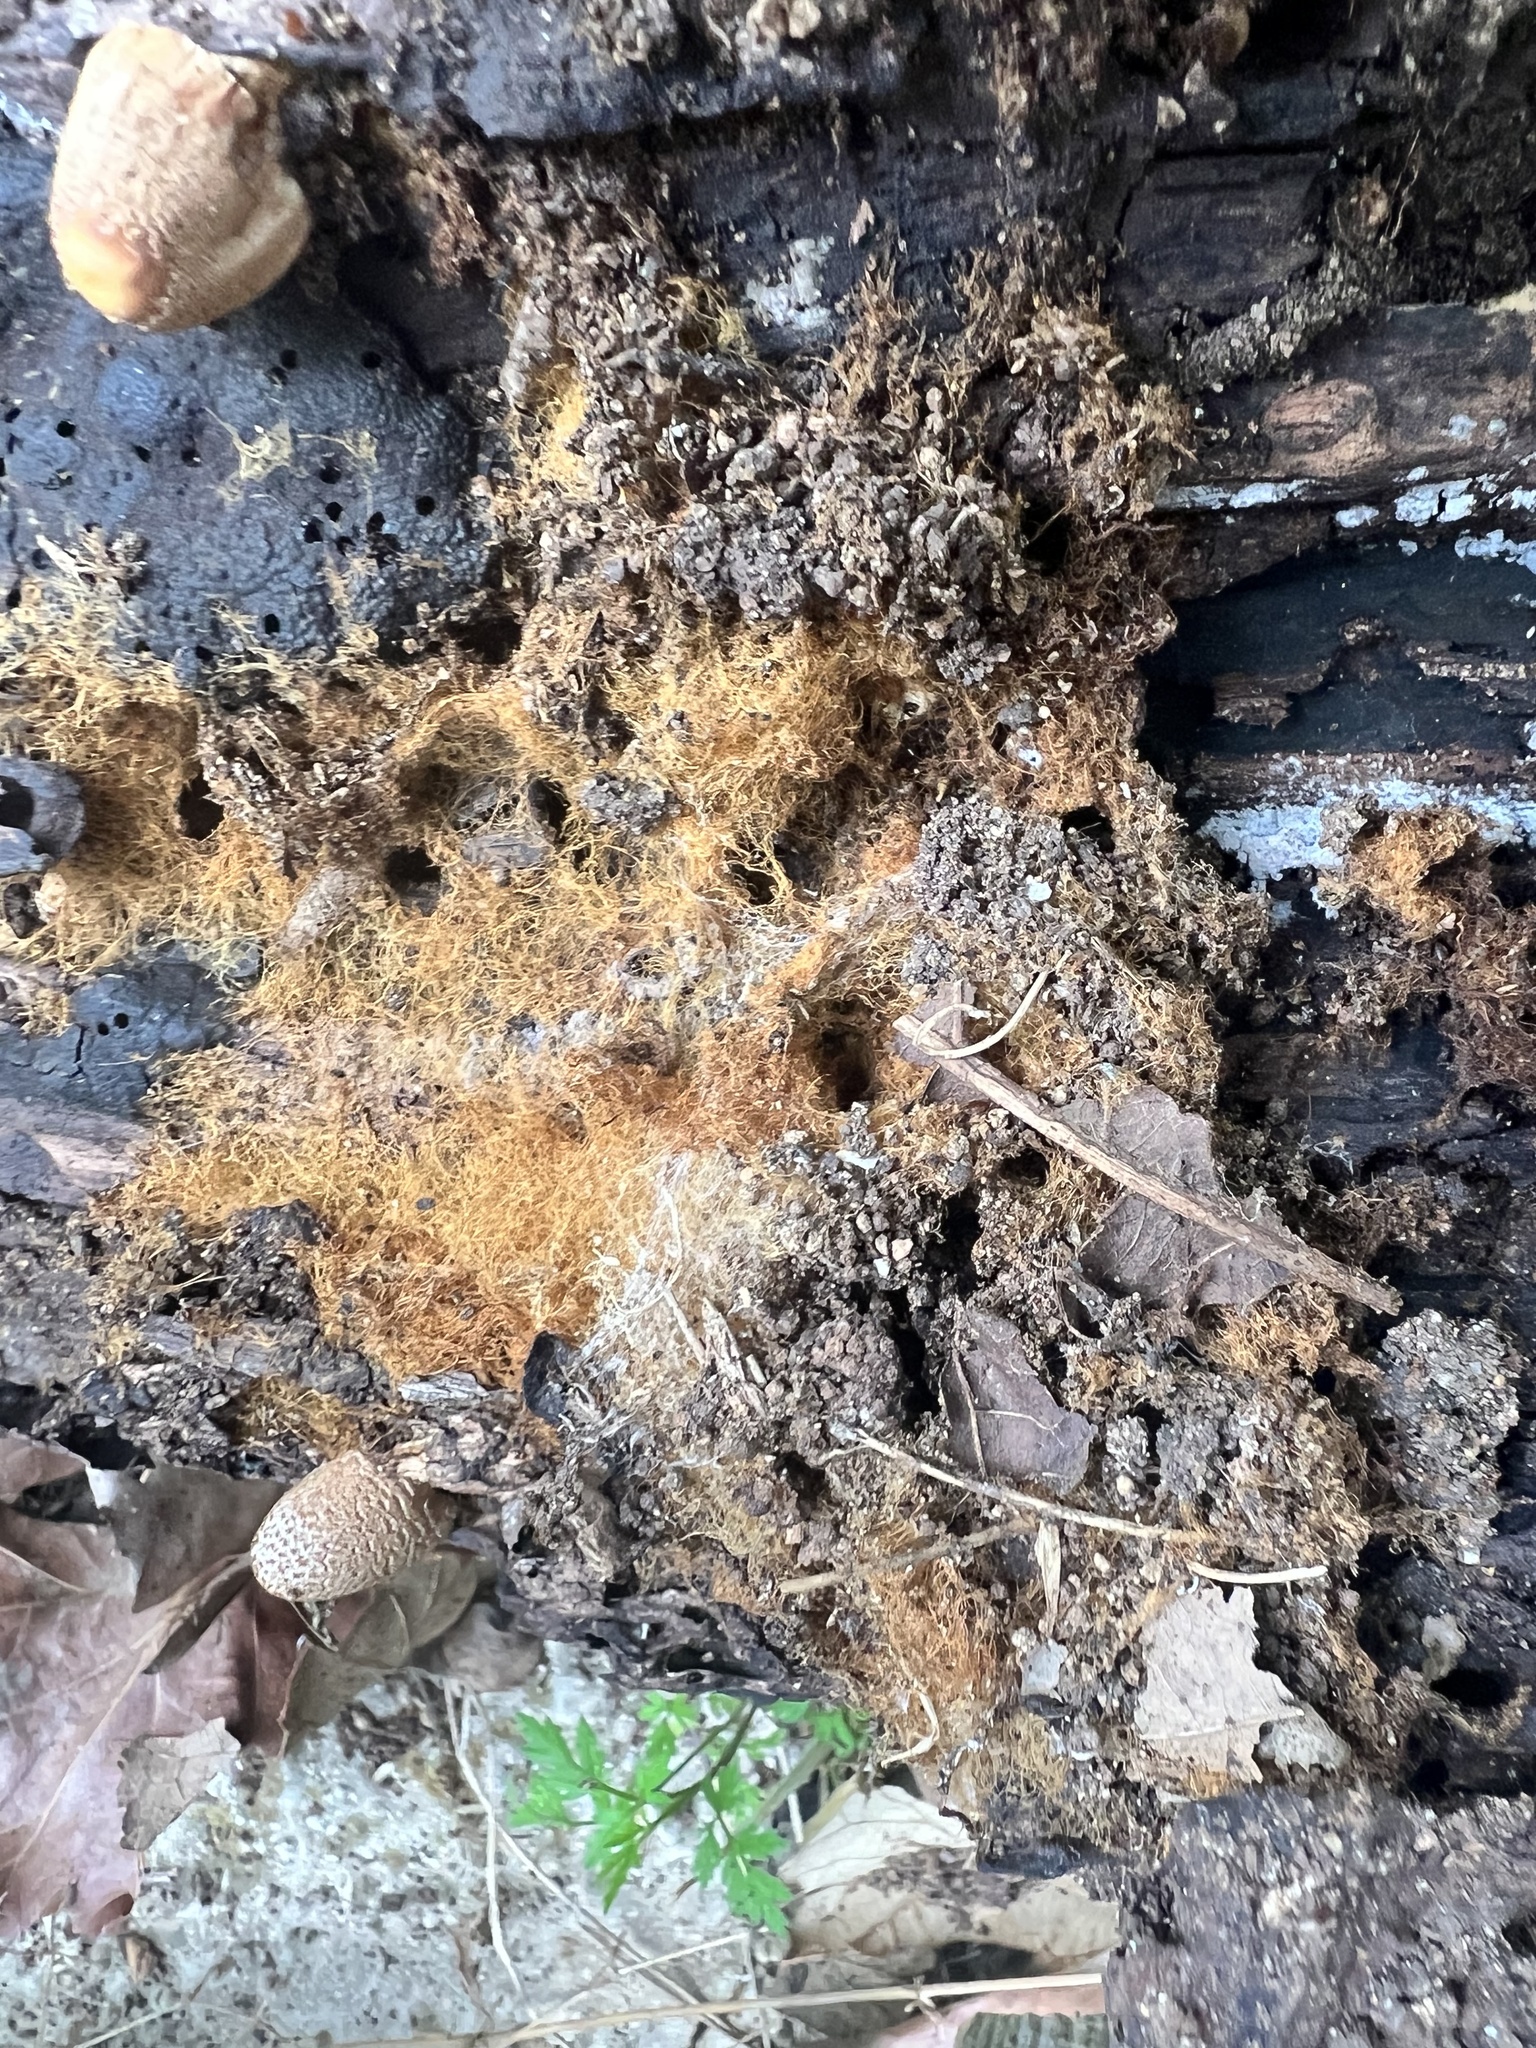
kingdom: Fungi
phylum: Basidiomycota
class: Agaricomycetes
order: Agaricales
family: Psathyrellaceae
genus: Coprinellus
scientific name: Coprinellus domesticus
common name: Firerug inkcap
